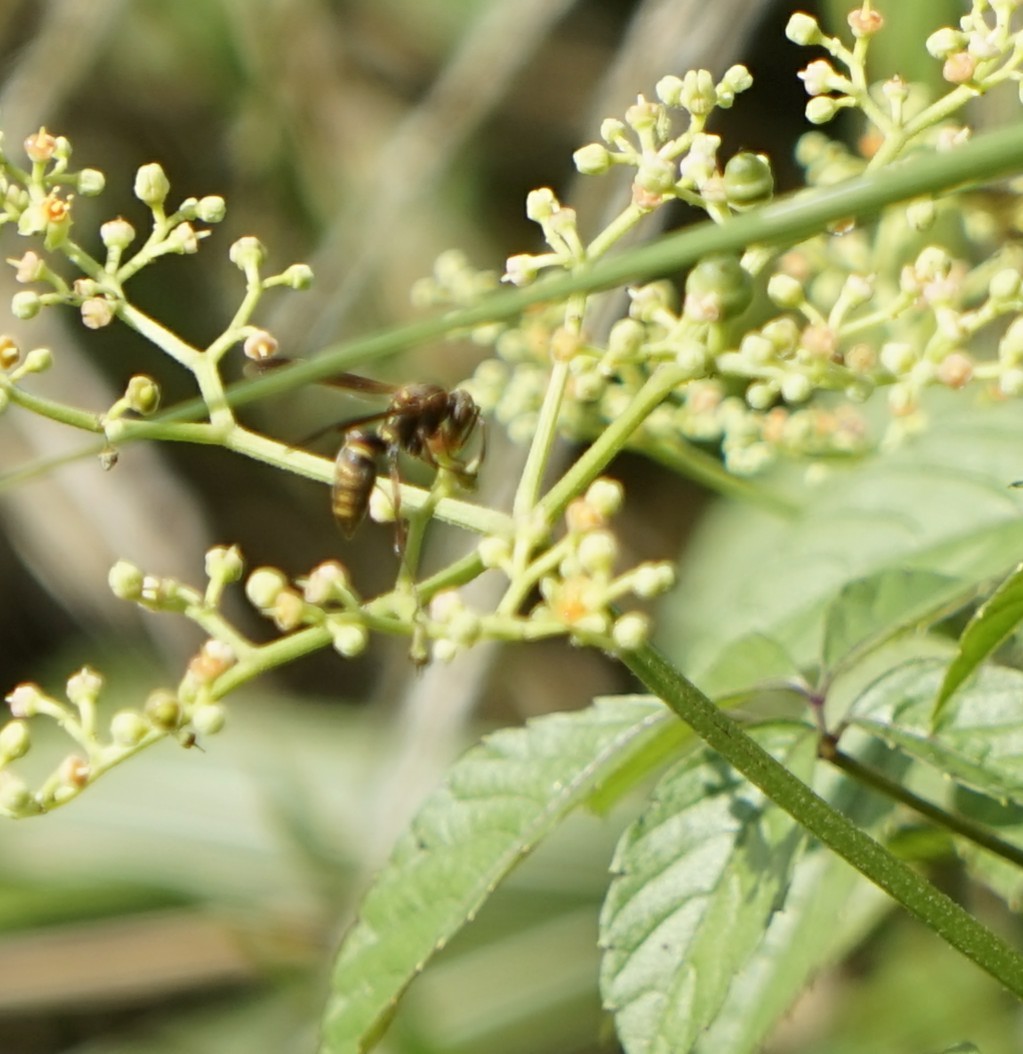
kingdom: Animalia
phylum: Arthropoda
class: Insecta
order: Hymenoptera
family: Eumenidae
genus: Polistes
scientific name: Polistes
